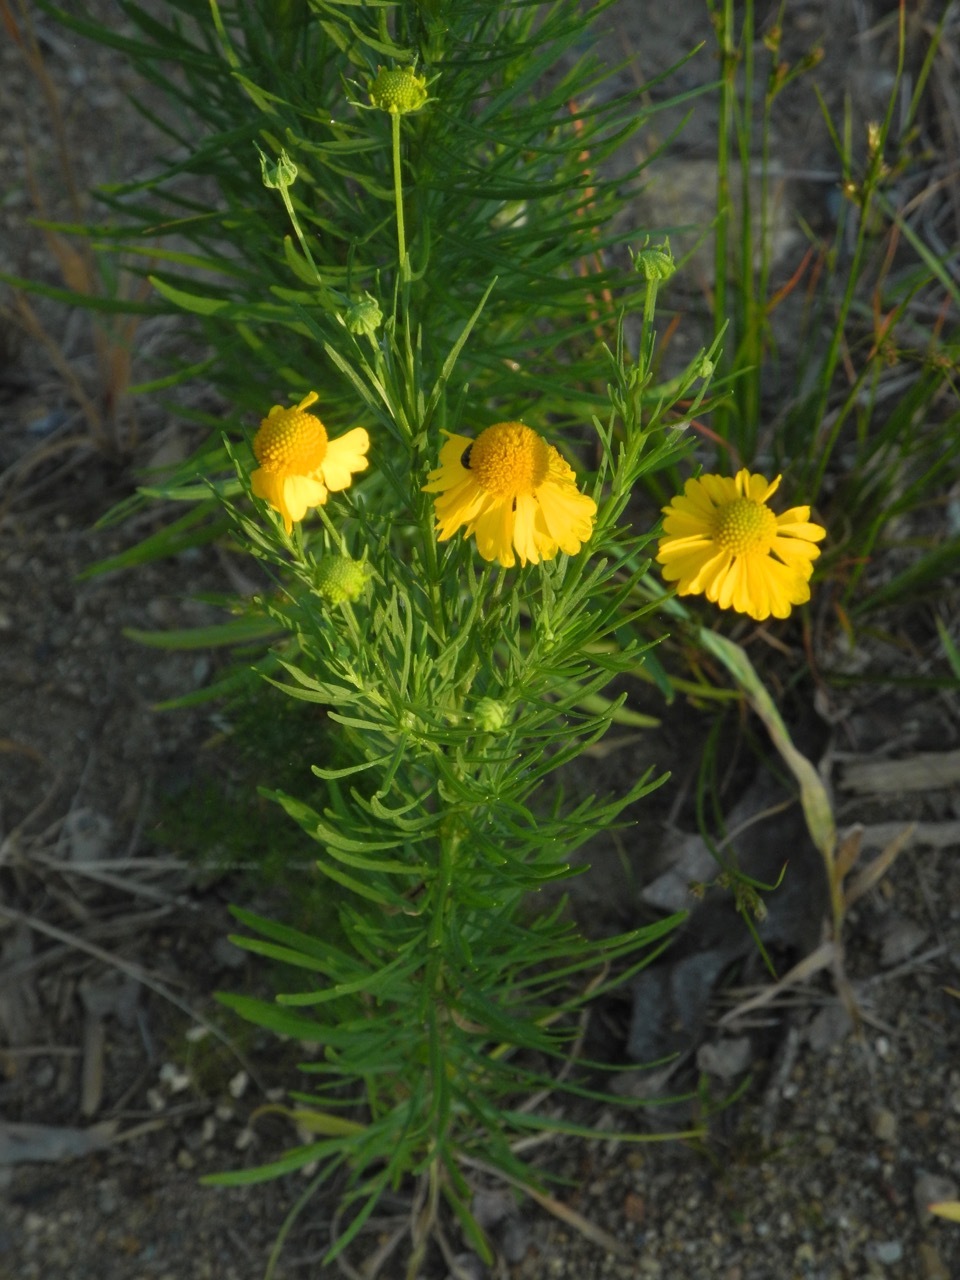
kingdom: Plantae
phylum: Tracheophyta
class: Magnoliopsida
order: Asterales
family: Asteraceae
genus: Helenium
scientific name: Helenium amarum
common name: Bitter sneezeweed
